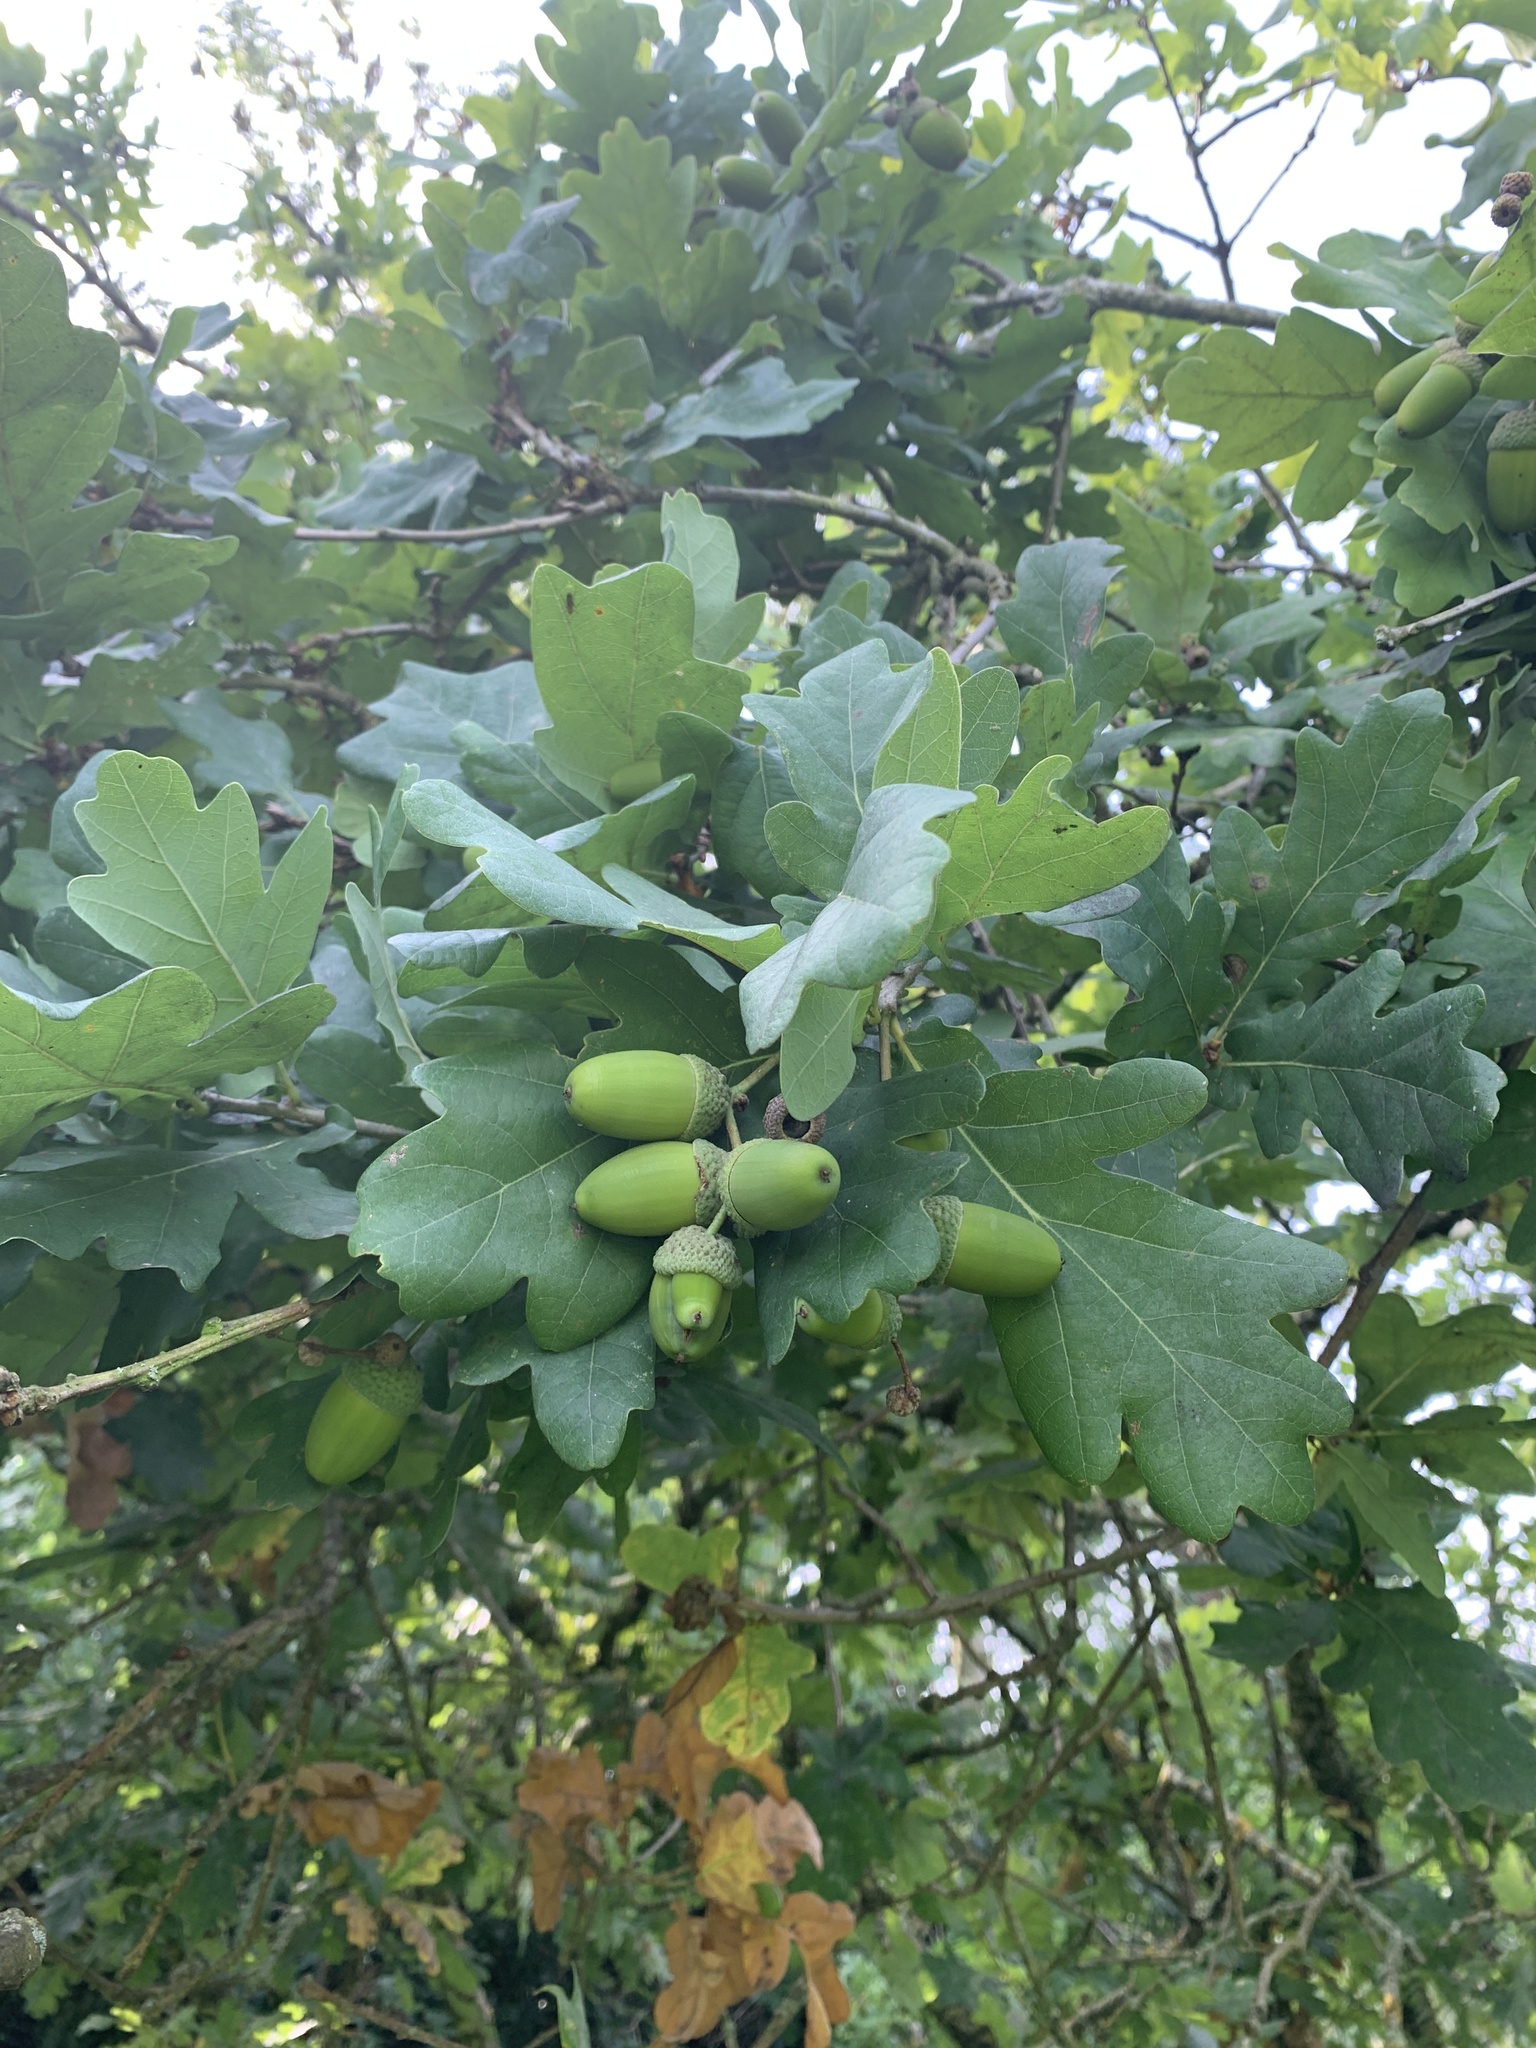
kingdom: Plantae
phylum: Tracheophyta
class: Magnoliopsida
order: Fagales
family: Fagaceae
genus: Quercus
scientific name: Quercus robur
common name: Pedunculate oak
